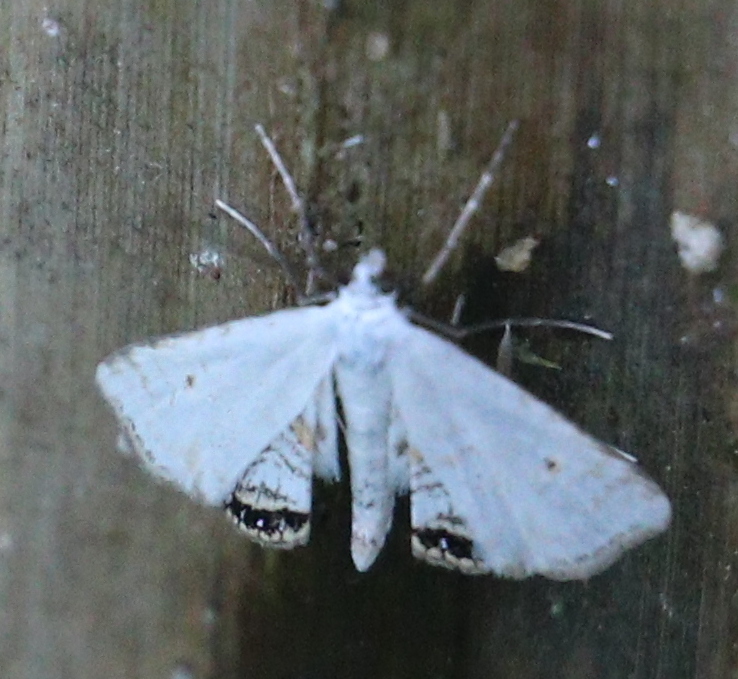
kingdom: Animalia
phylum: Arthropoda
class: Insecta
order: Lepidoptera
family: Crambidae
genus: Cataclysta
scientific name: Cataclysta lemnata
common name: Small china-mark
